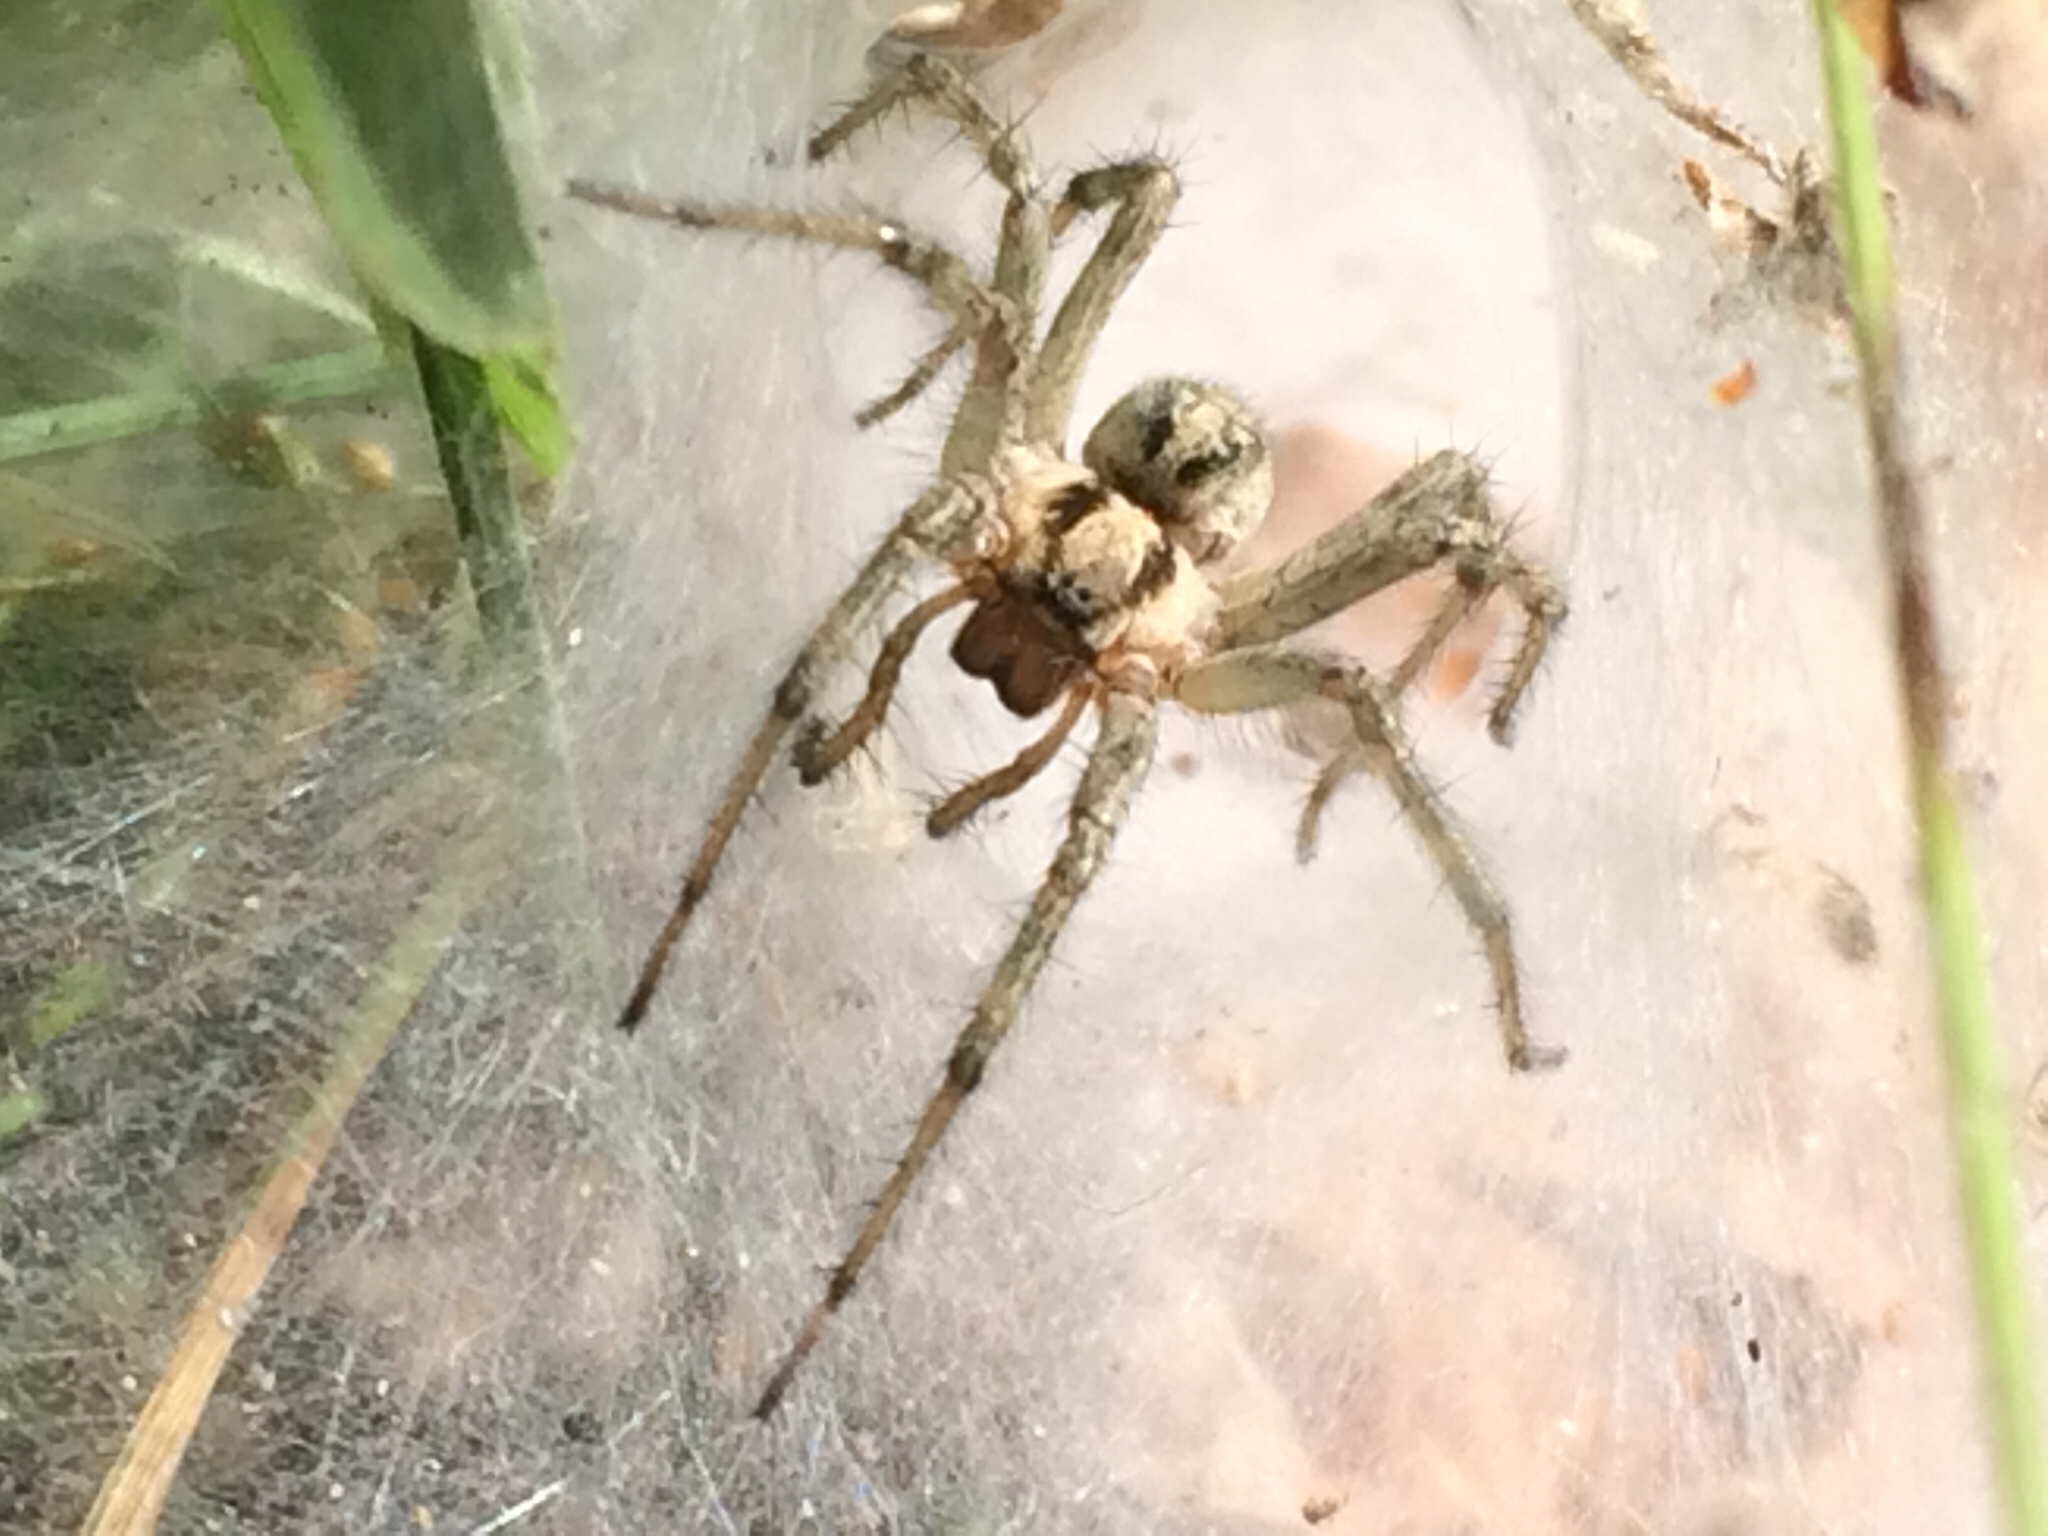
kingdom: Animalia
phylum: Arthropoda
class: Arachnida
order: Araneae
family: Agelenidae
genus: Agelena
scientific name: Agelena labyrinthica
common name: Labyrinth spider
